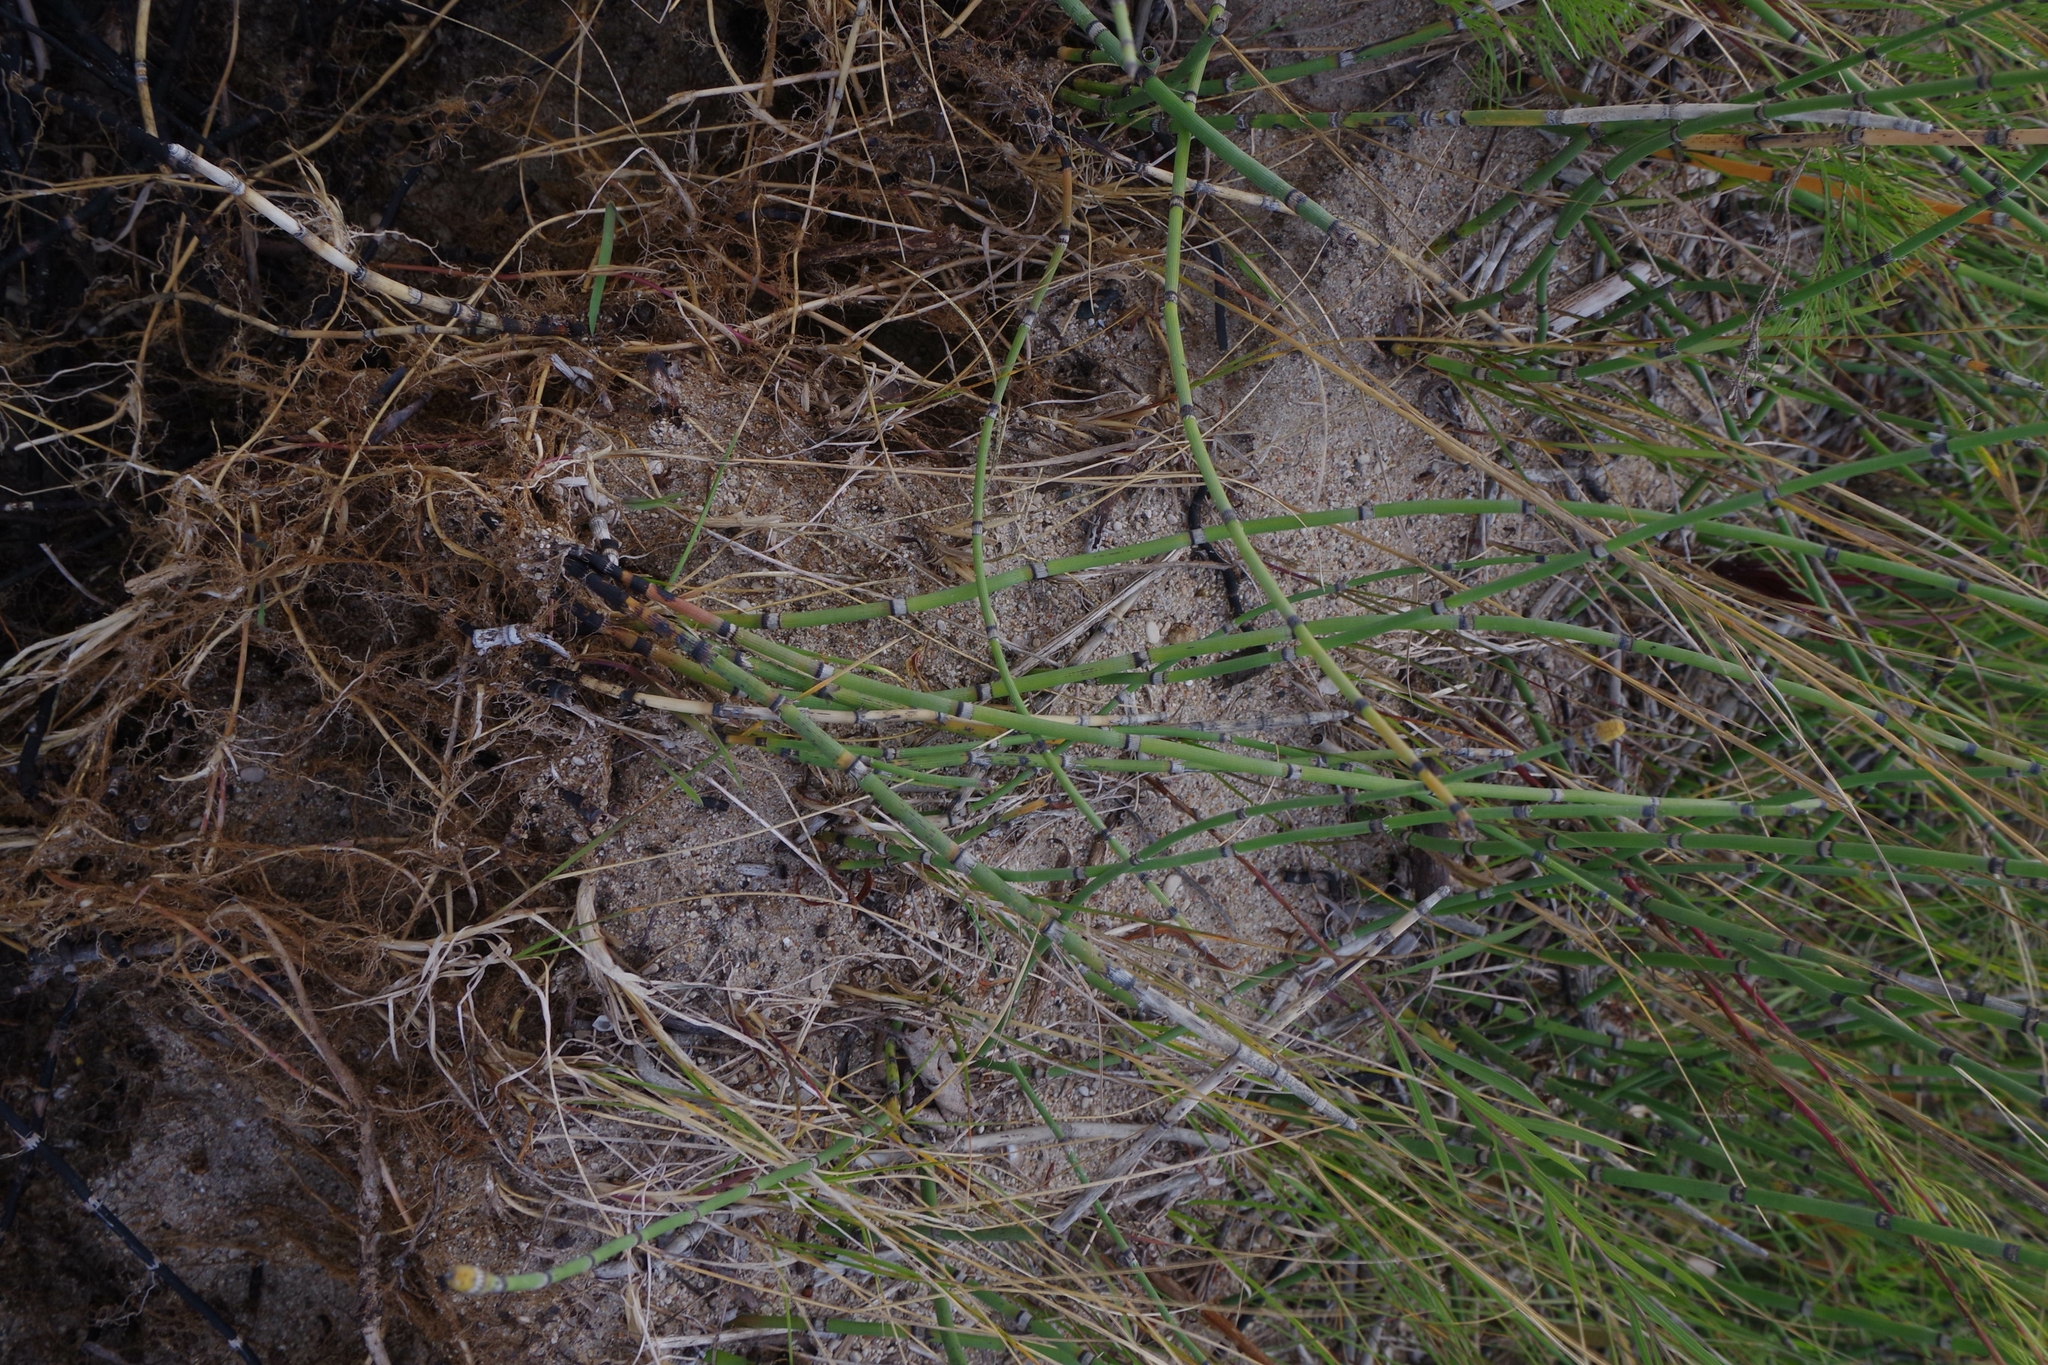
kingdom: Plantae
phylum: Tracheophyta
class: Polypodiopsida
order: Equisetales
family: Equisetaceae
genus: Equisetum
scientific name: Equisetum praealtum
